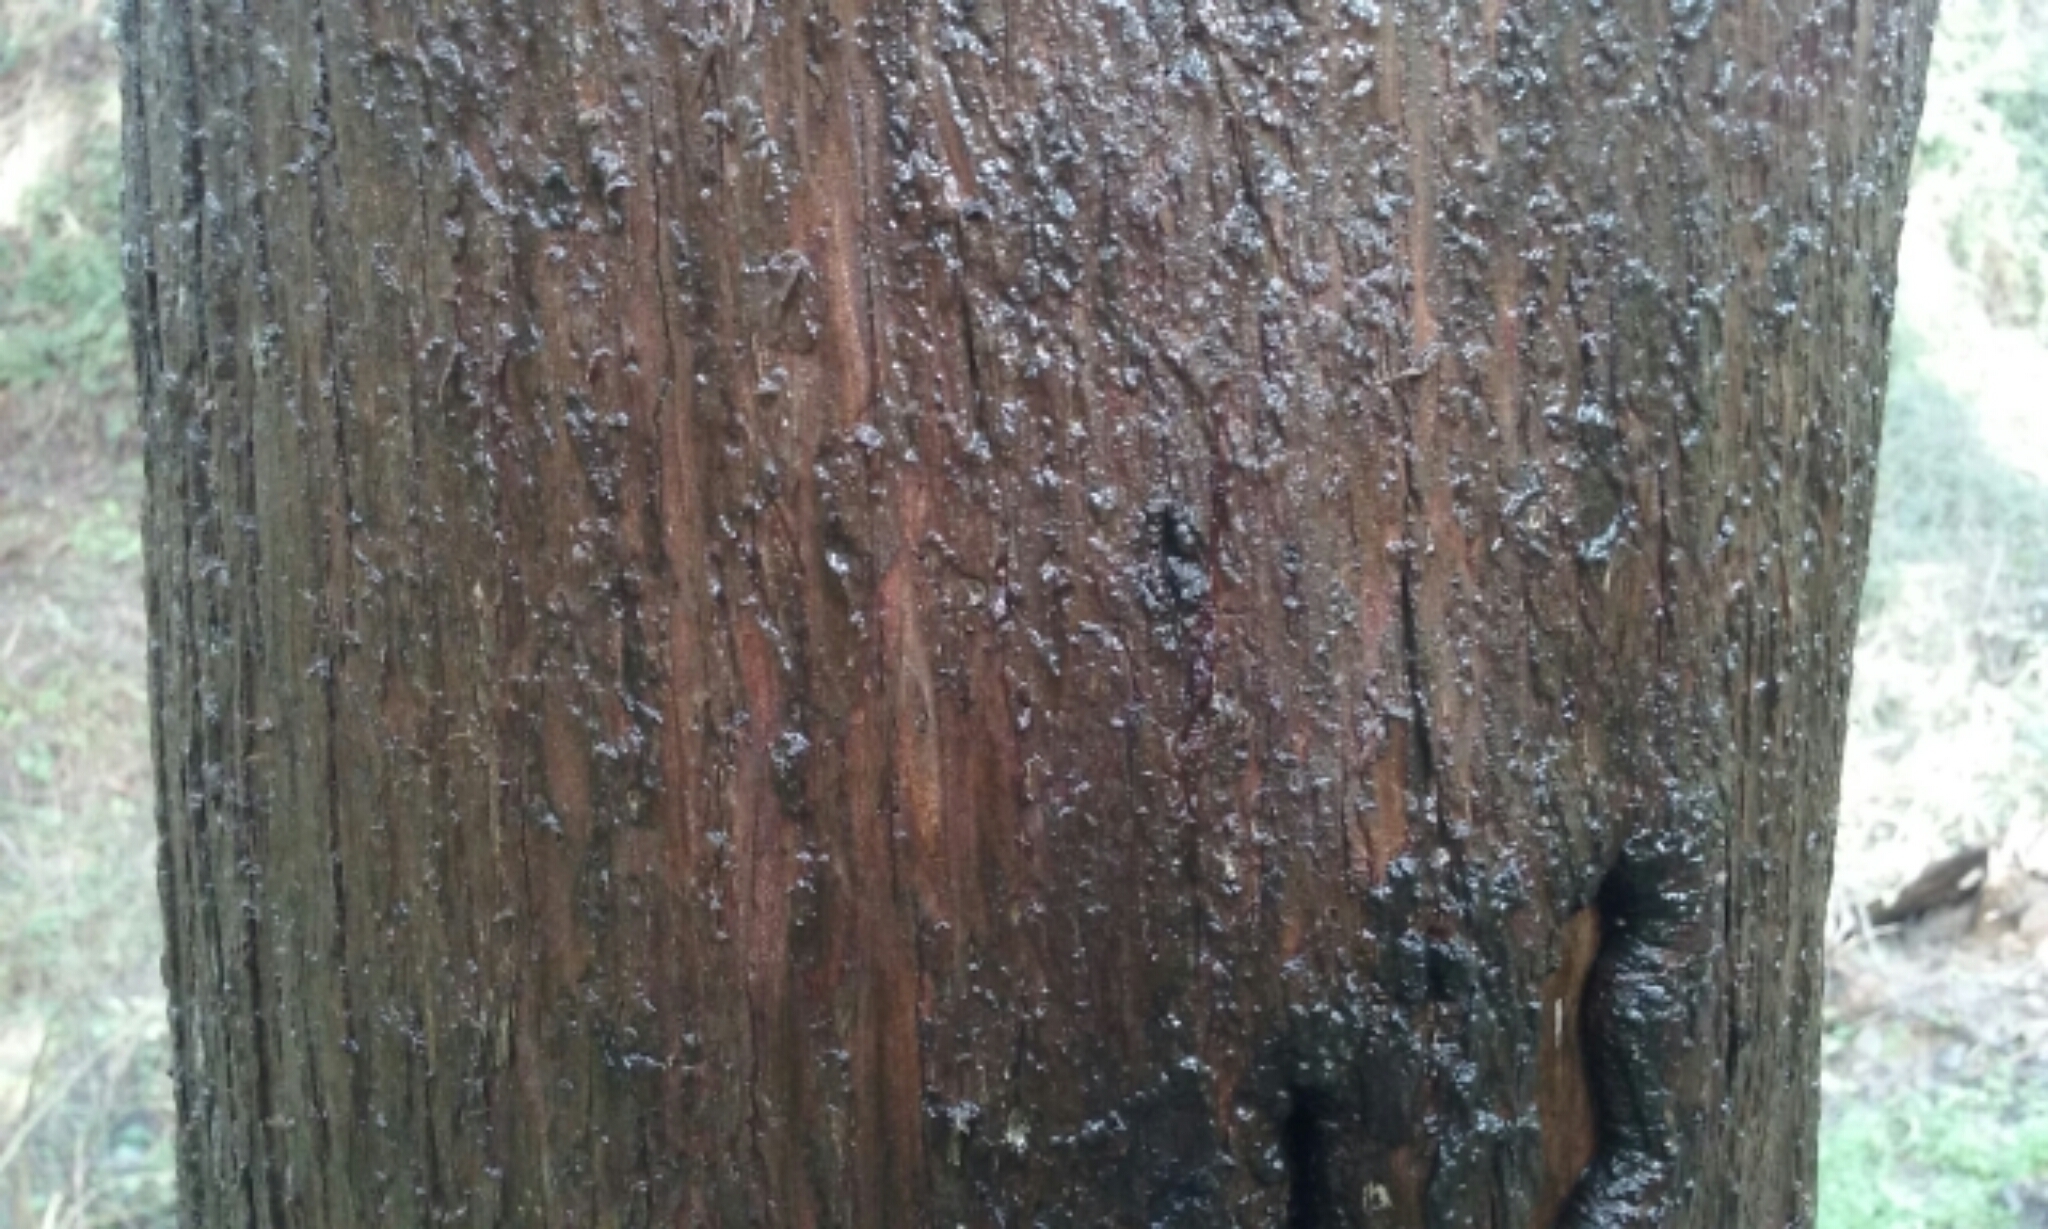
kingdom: Plantae
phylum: Tracheophyta
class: Pinopsida
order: Pinales
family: Cupressaceae
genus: Cupressus
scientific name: Cupressus macrocarpa
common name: Monterey cypress
